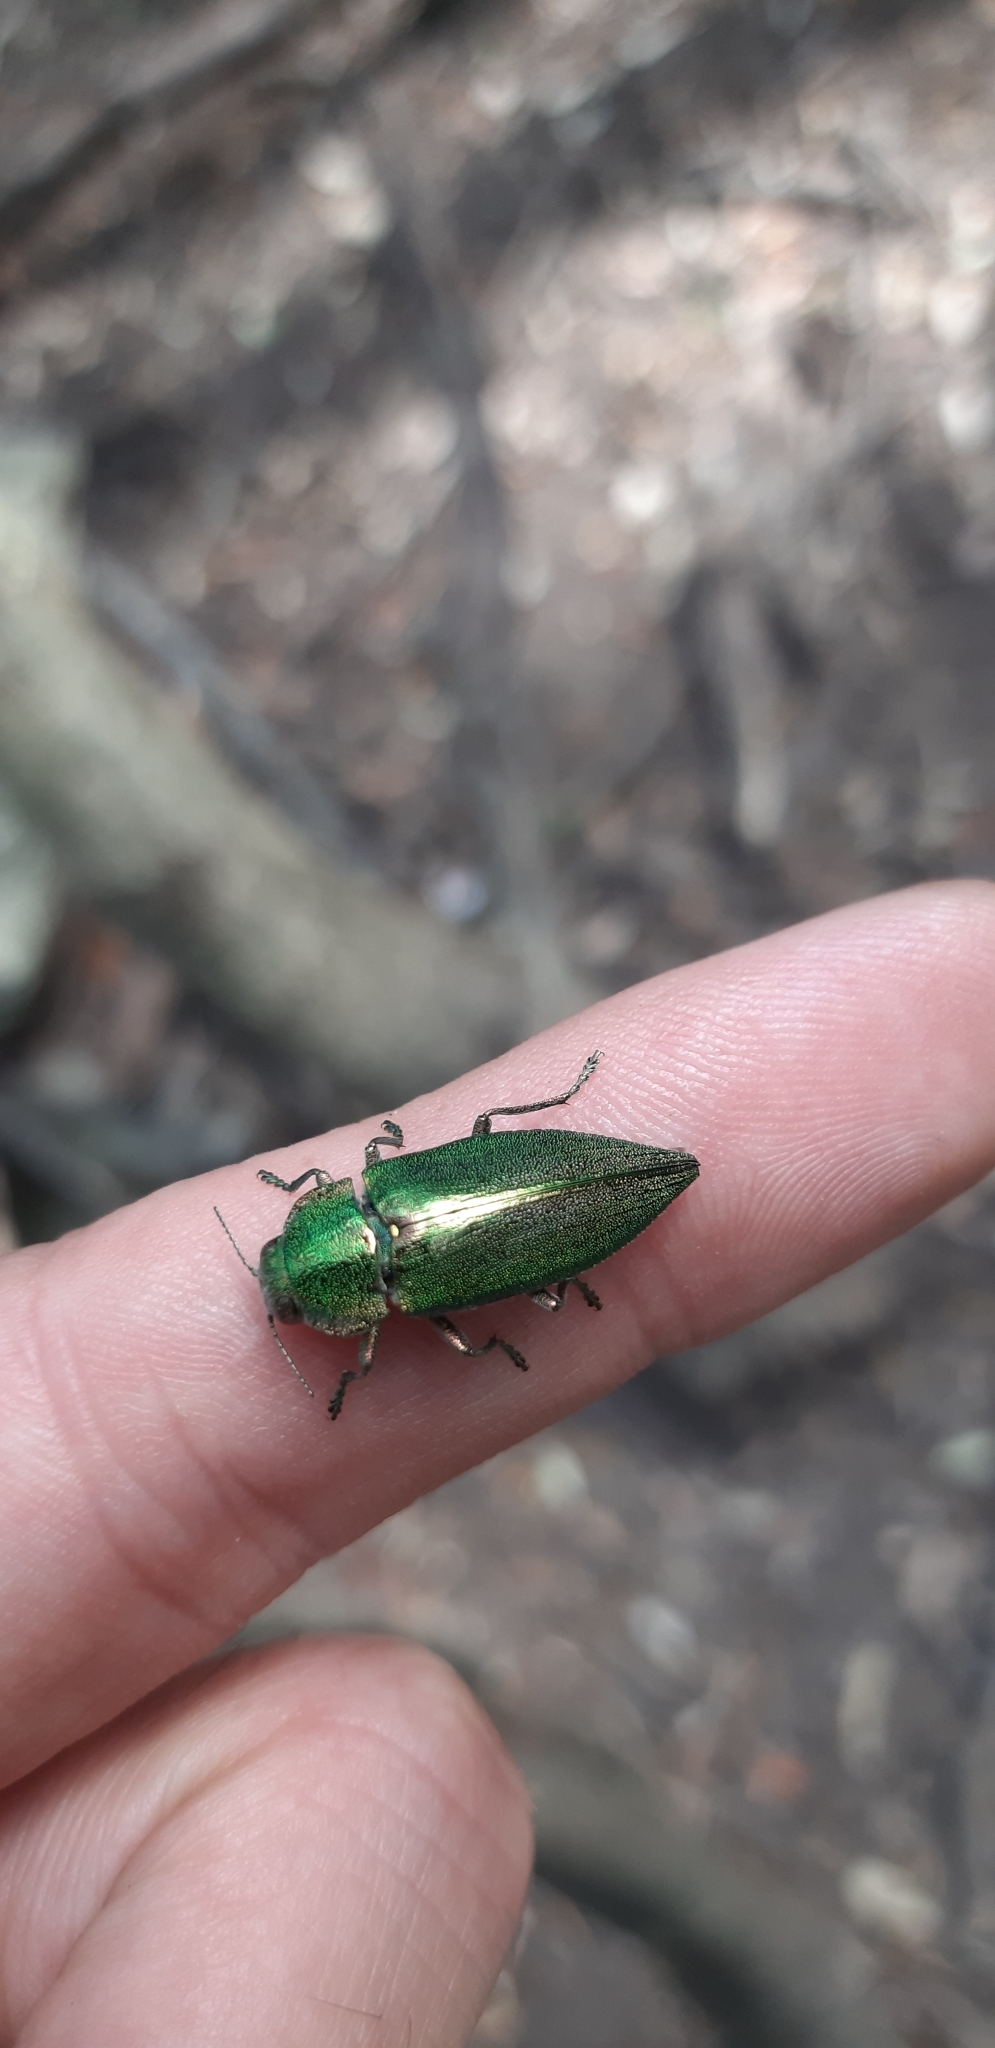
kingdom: Animalia
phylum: Arthropoda
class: Insecta
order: Coleoptera
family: Buprestidae
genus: Latipalpis
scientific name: Latipalpis plana
